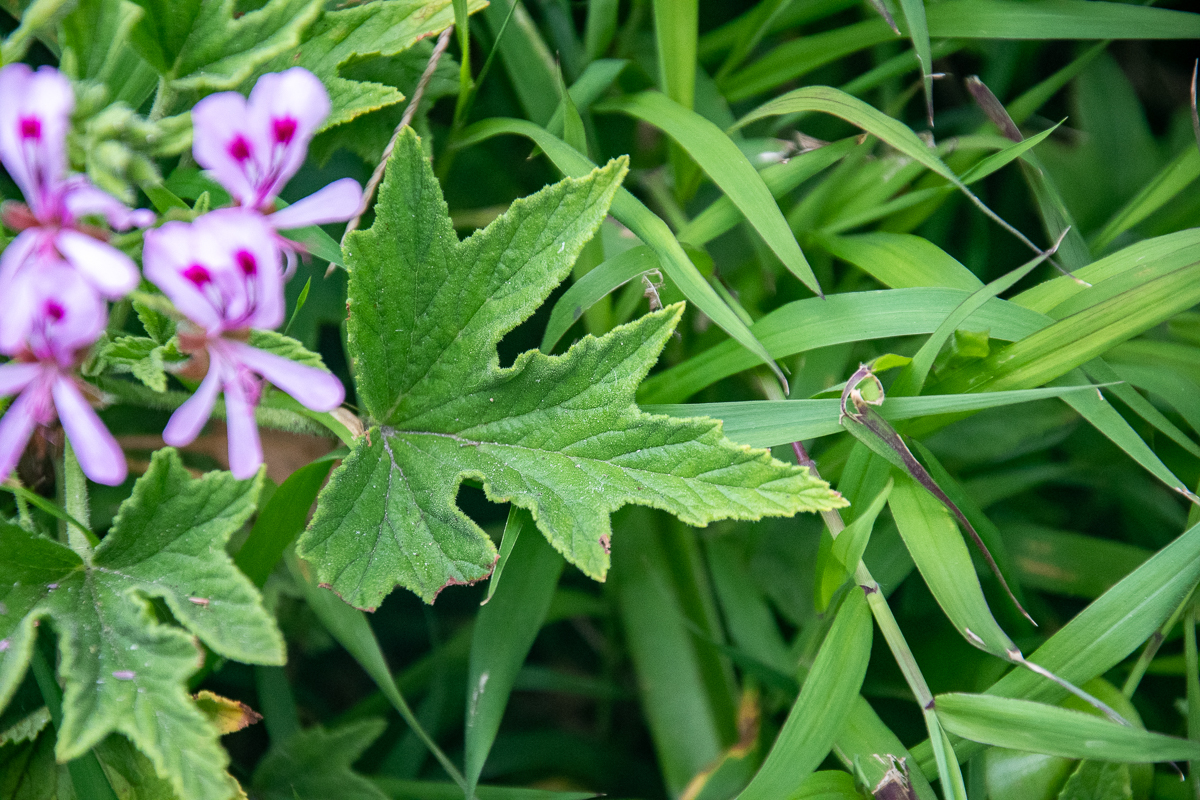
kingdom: Plantae
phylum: Tracheophyta
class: Magnoliopsida
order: Geraniales
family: Geraniaceae
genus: Pelargonium
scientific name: Pelargonium citronellum
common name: Lemon-scent pelargonium
